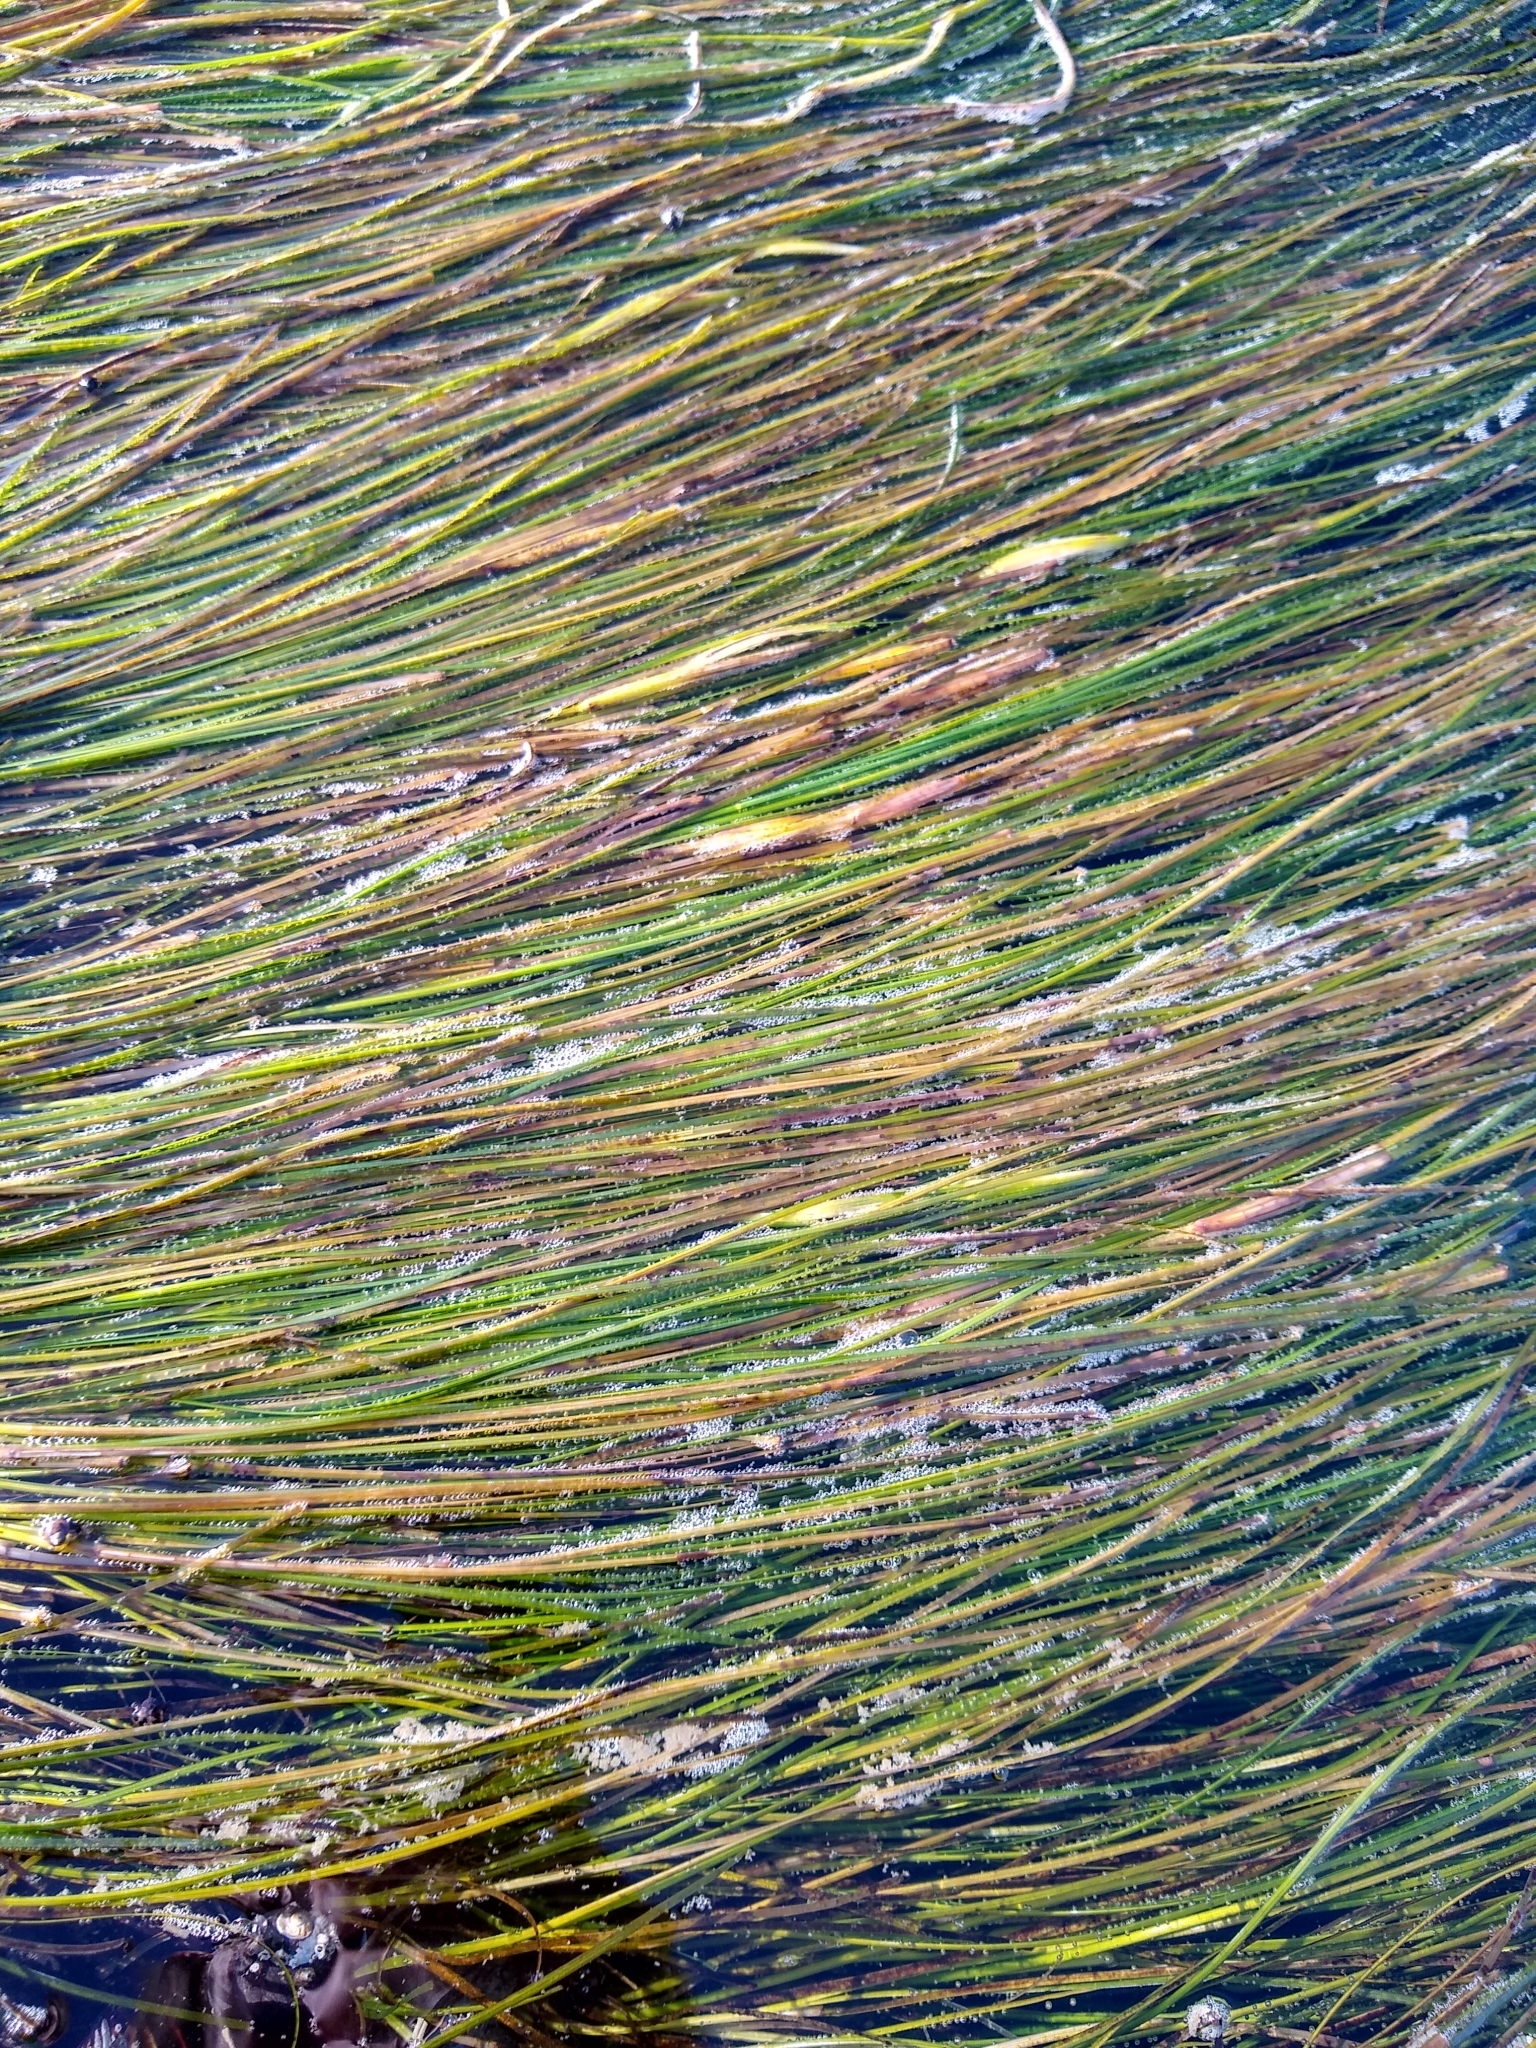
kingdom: Plantae
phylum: Tracheophyta
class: Liliopsida
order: Alismatales
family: Zosteraceae
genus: Phyllospadix
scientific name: Phyllospadix torreyi
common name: Surfgrass
